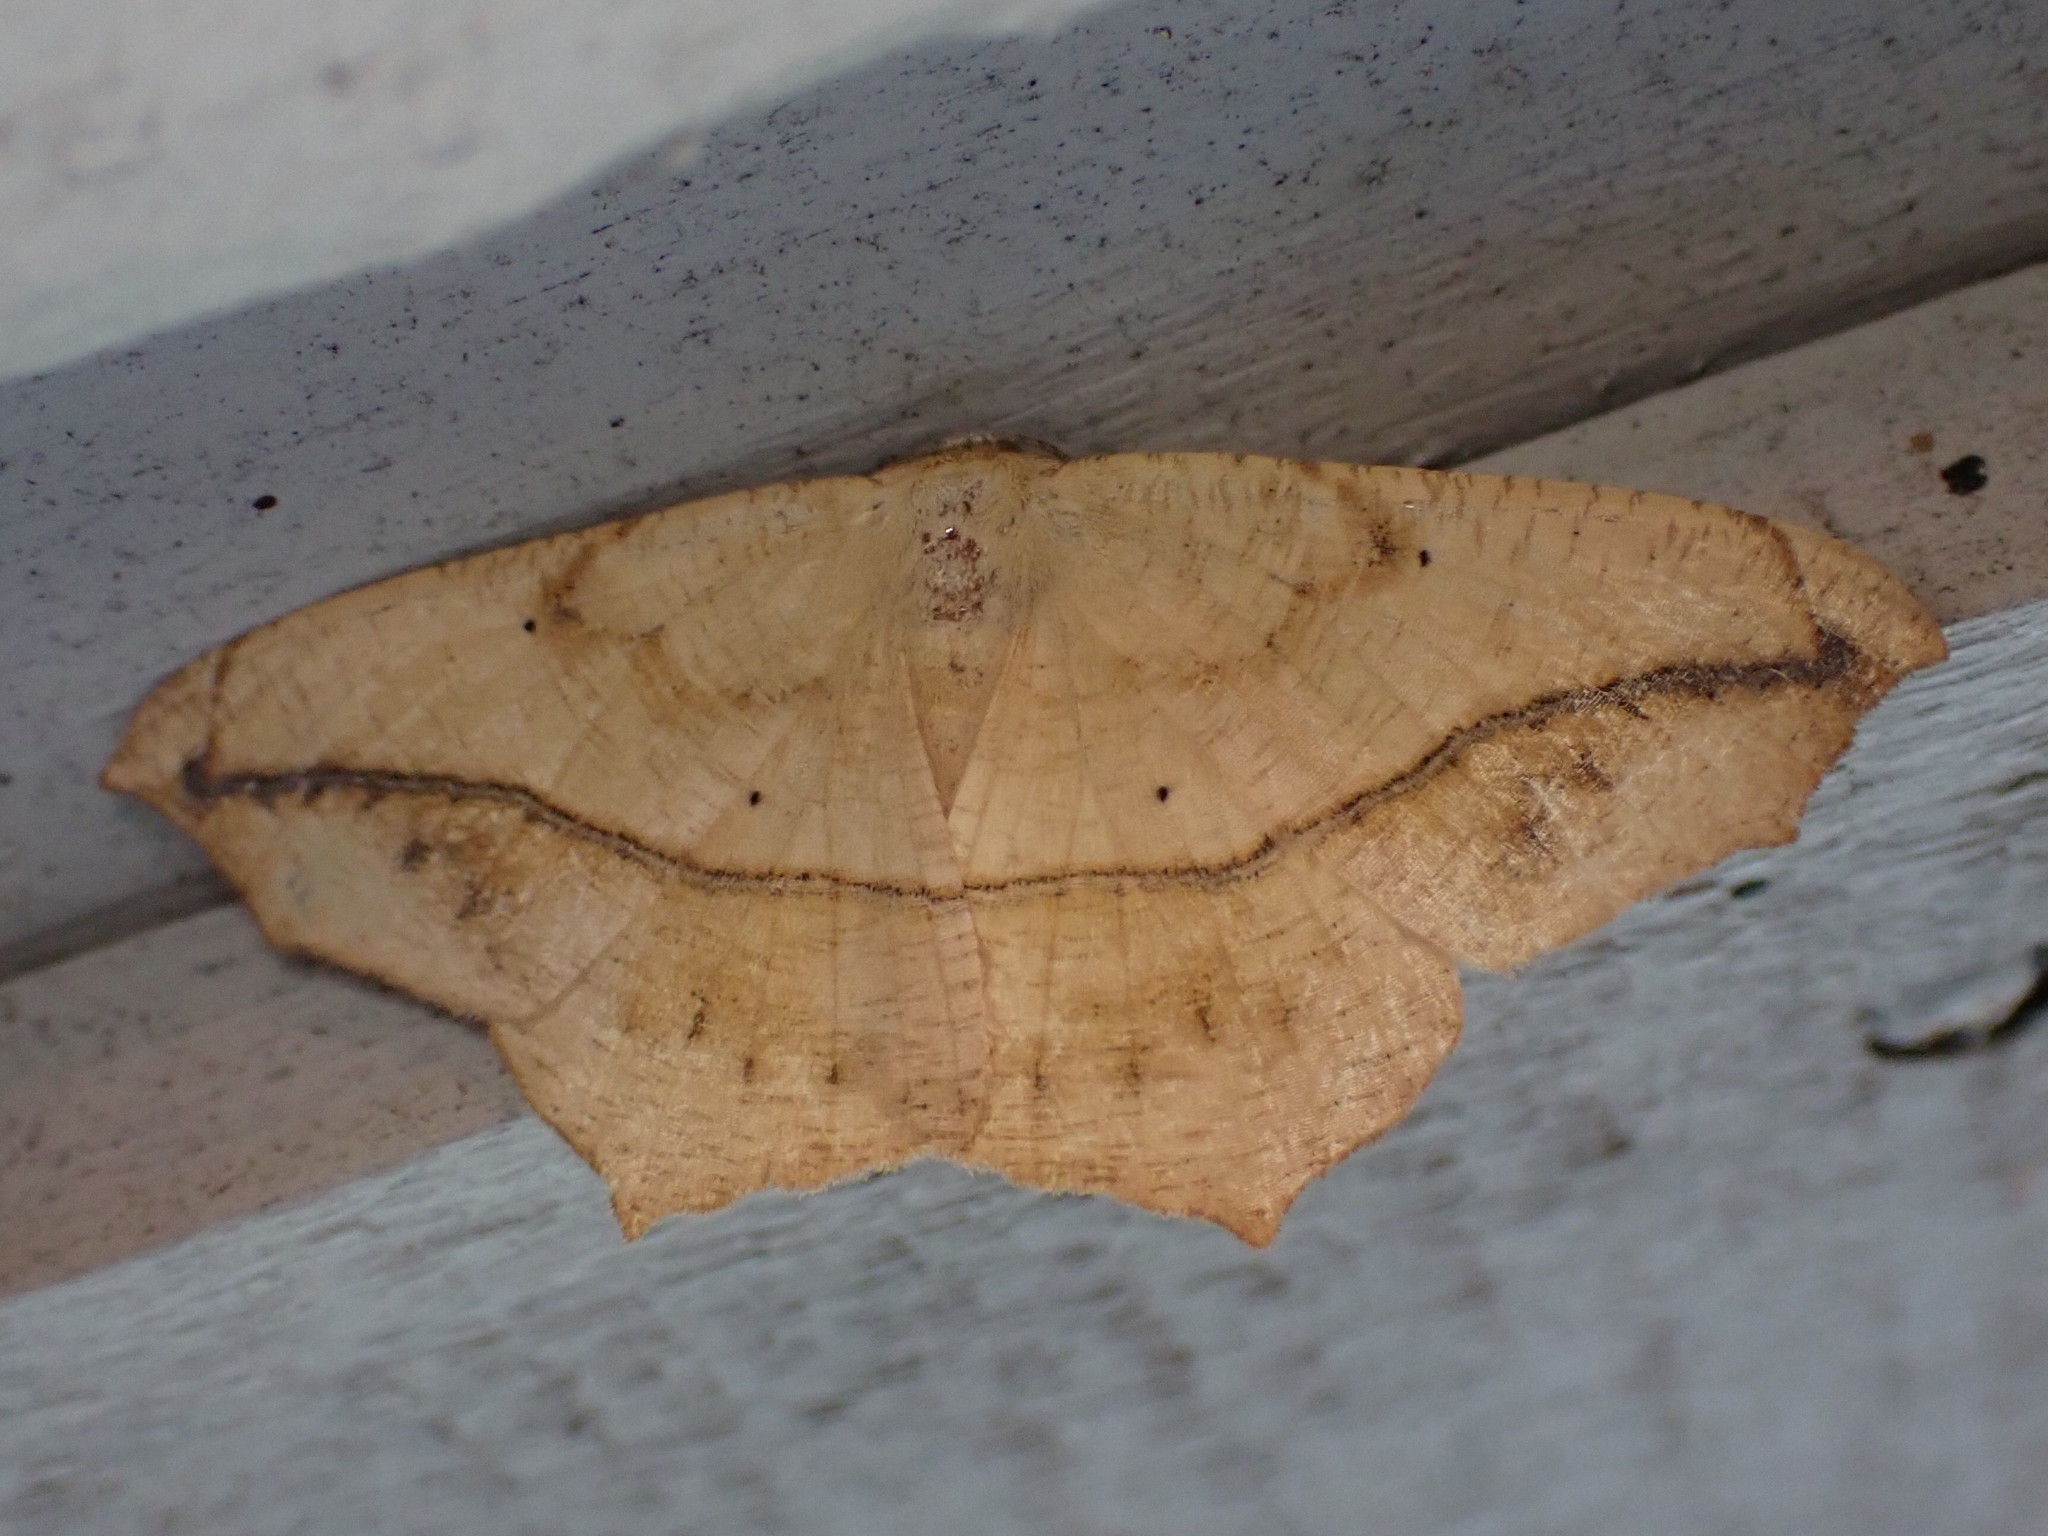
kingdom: Animalia
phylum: Arthropoda
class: Insecta
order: Lepidoptera
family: Geometridae
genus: Prochoerodes
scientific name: Prochoerodes lineola
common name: Large maple spanworm
